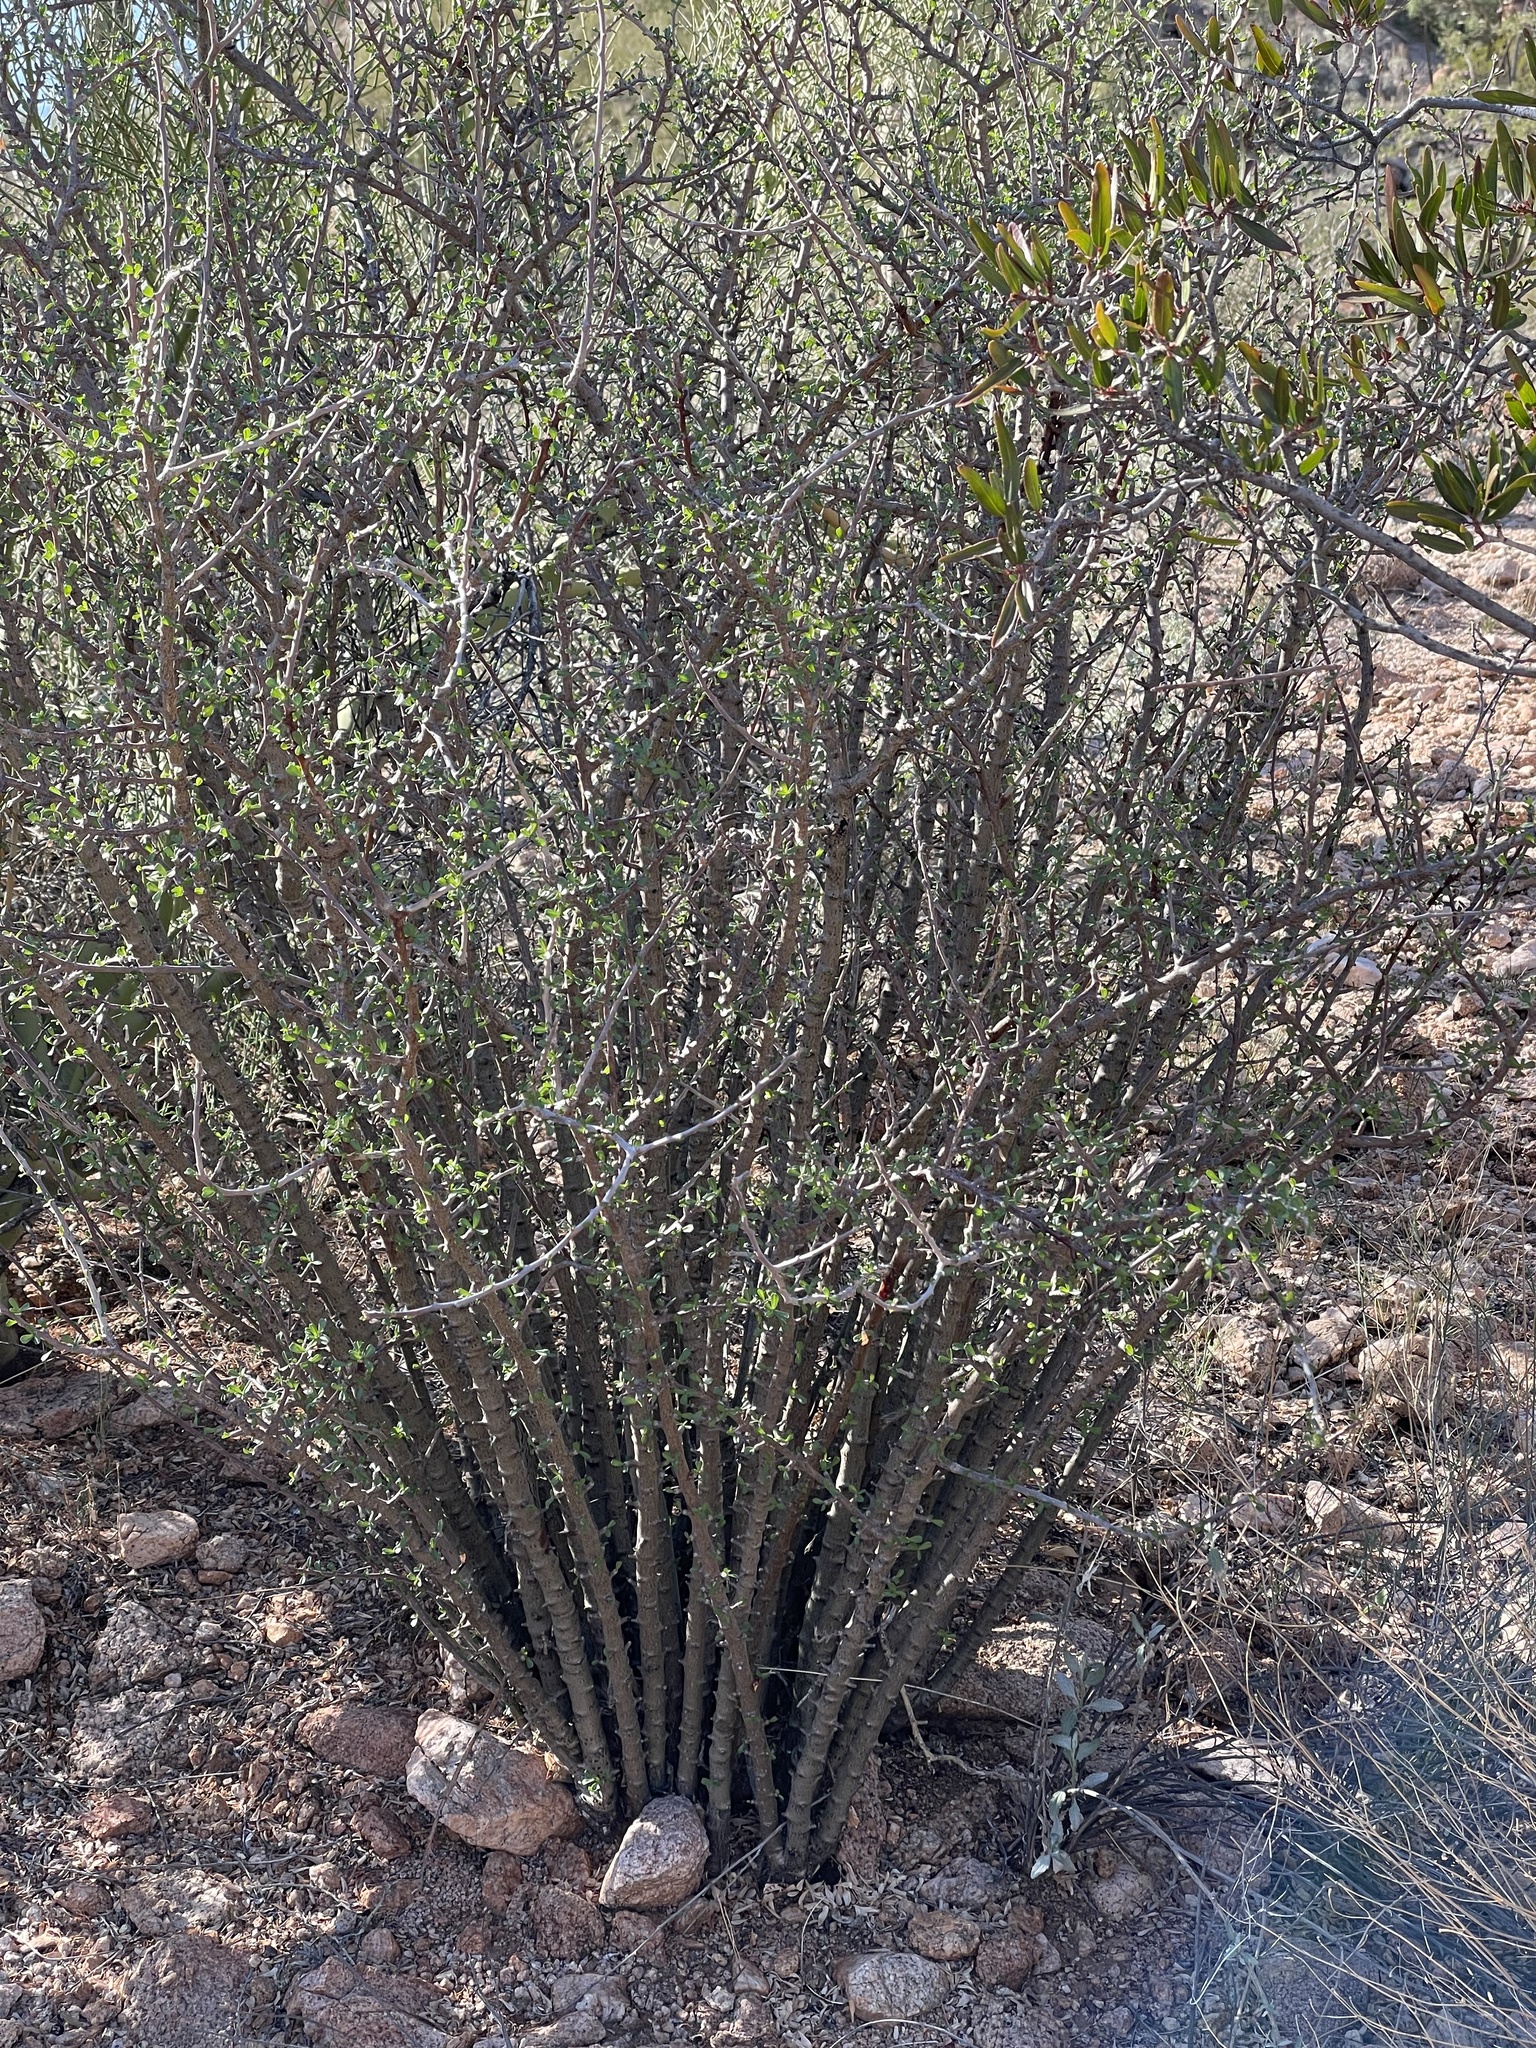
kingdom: Plantae
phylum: Tracheophyta
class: Magnoliopsida
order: Malpighiales
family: Euphorbiaceae
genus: Jatropha
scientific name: Jatropha cuneata
